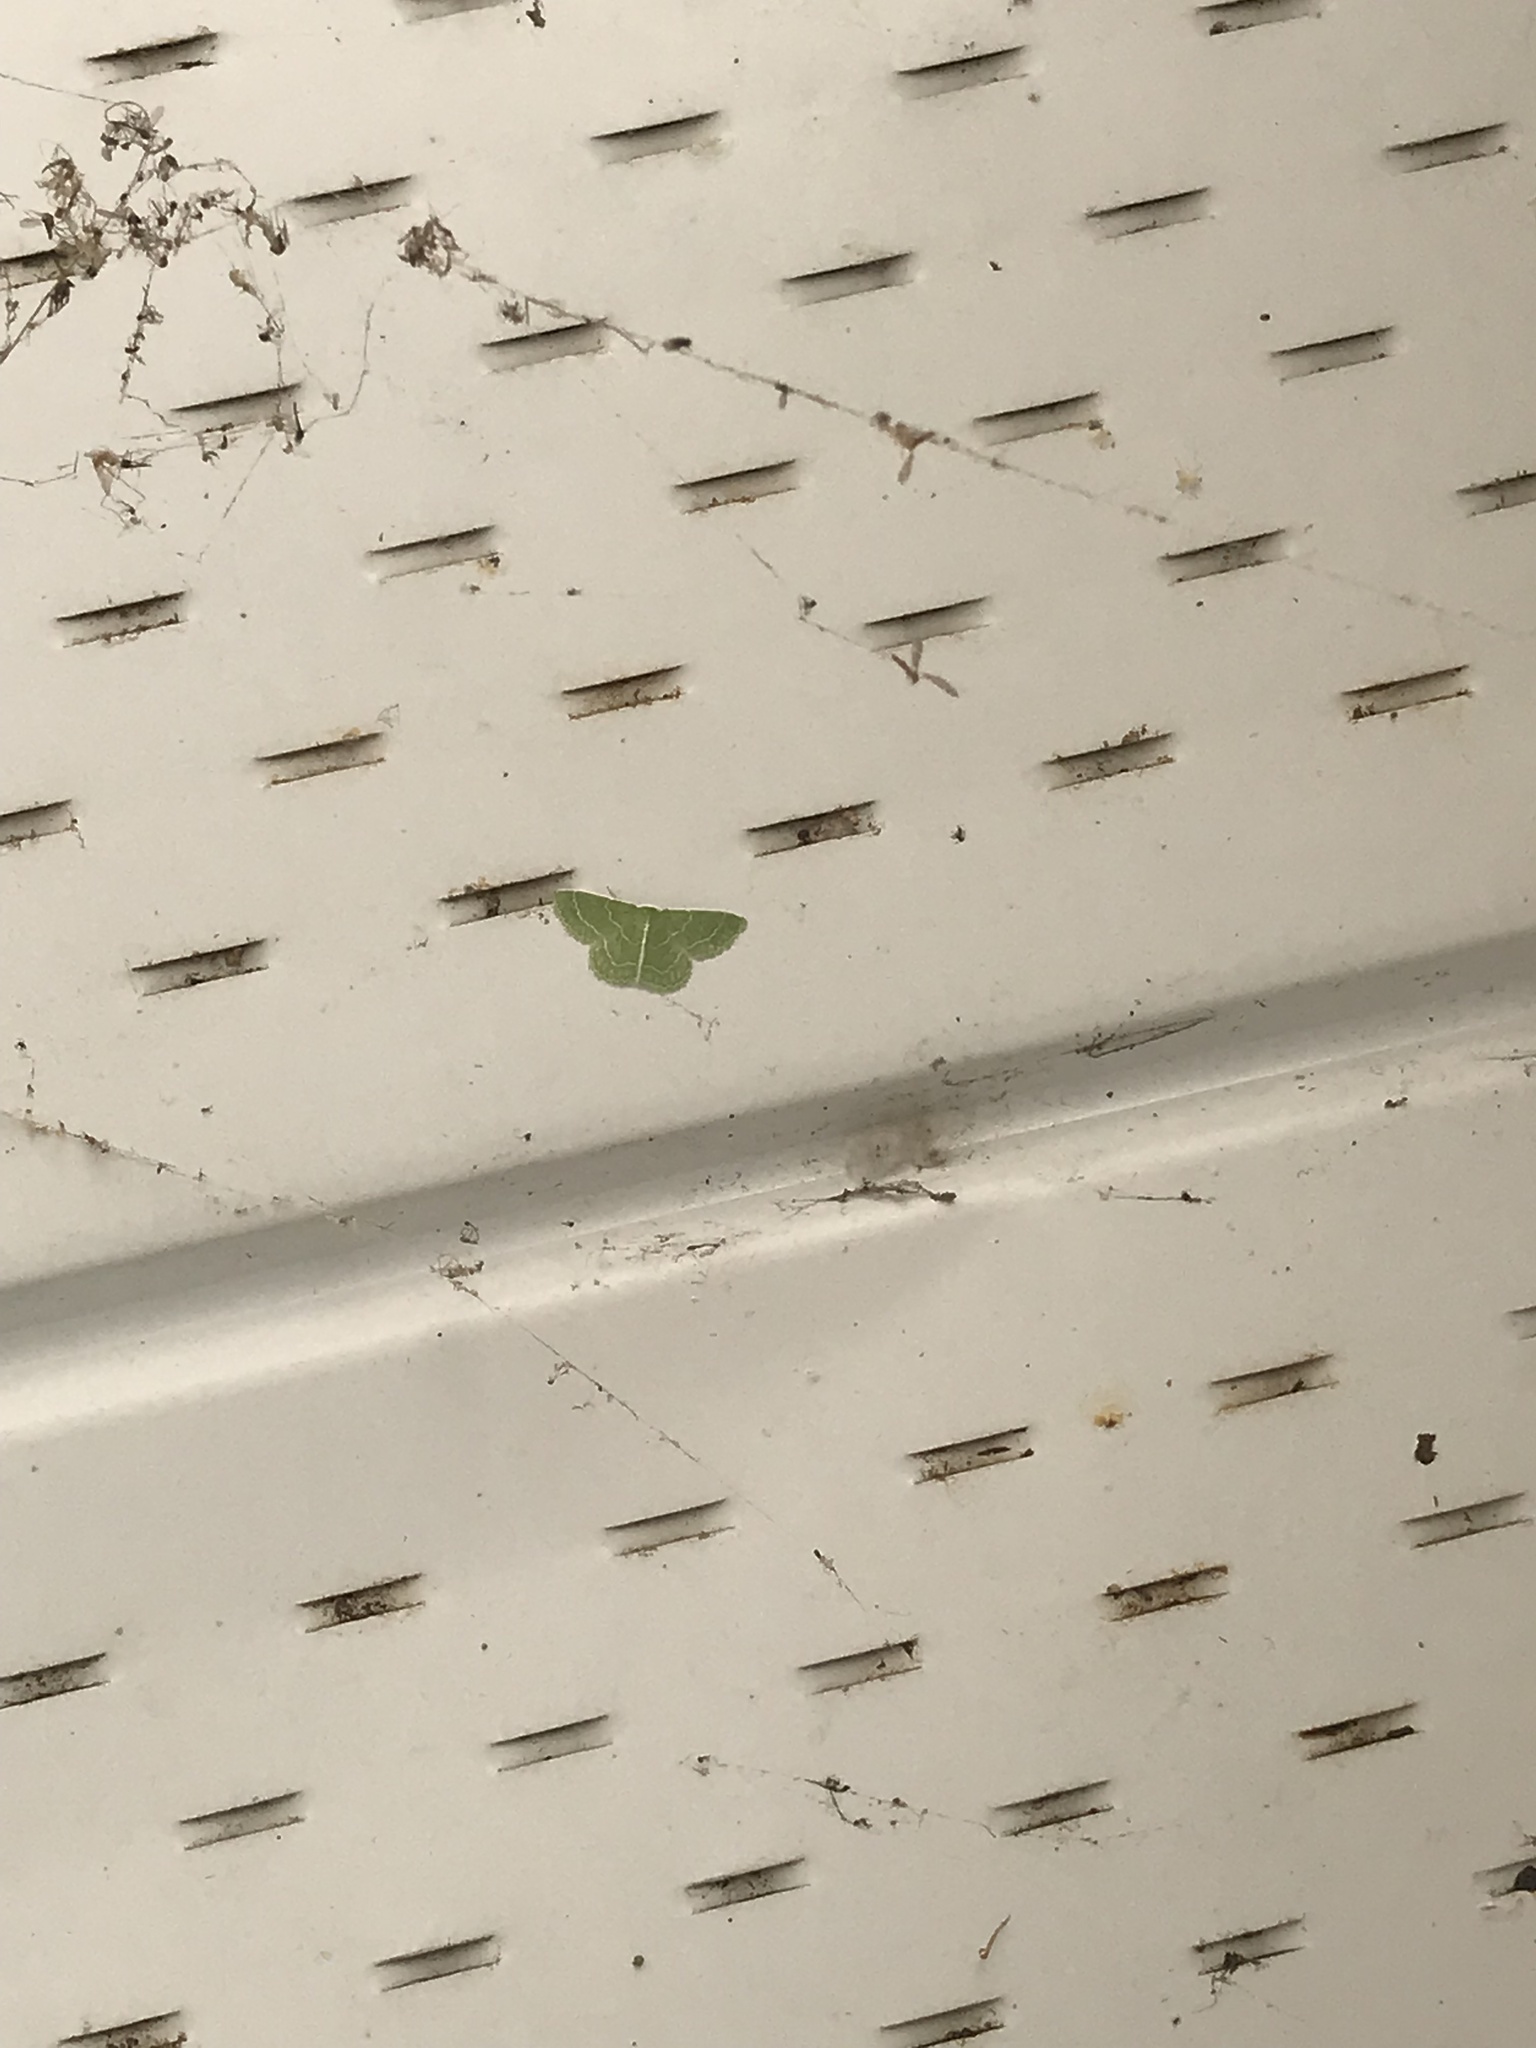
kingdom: Animalia
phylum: Arthropoda
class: Insecta
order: Lepidoptera
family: Geometridae
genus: Synchlora
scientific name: Synchlora aerata
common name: Wavy-lined emerald
